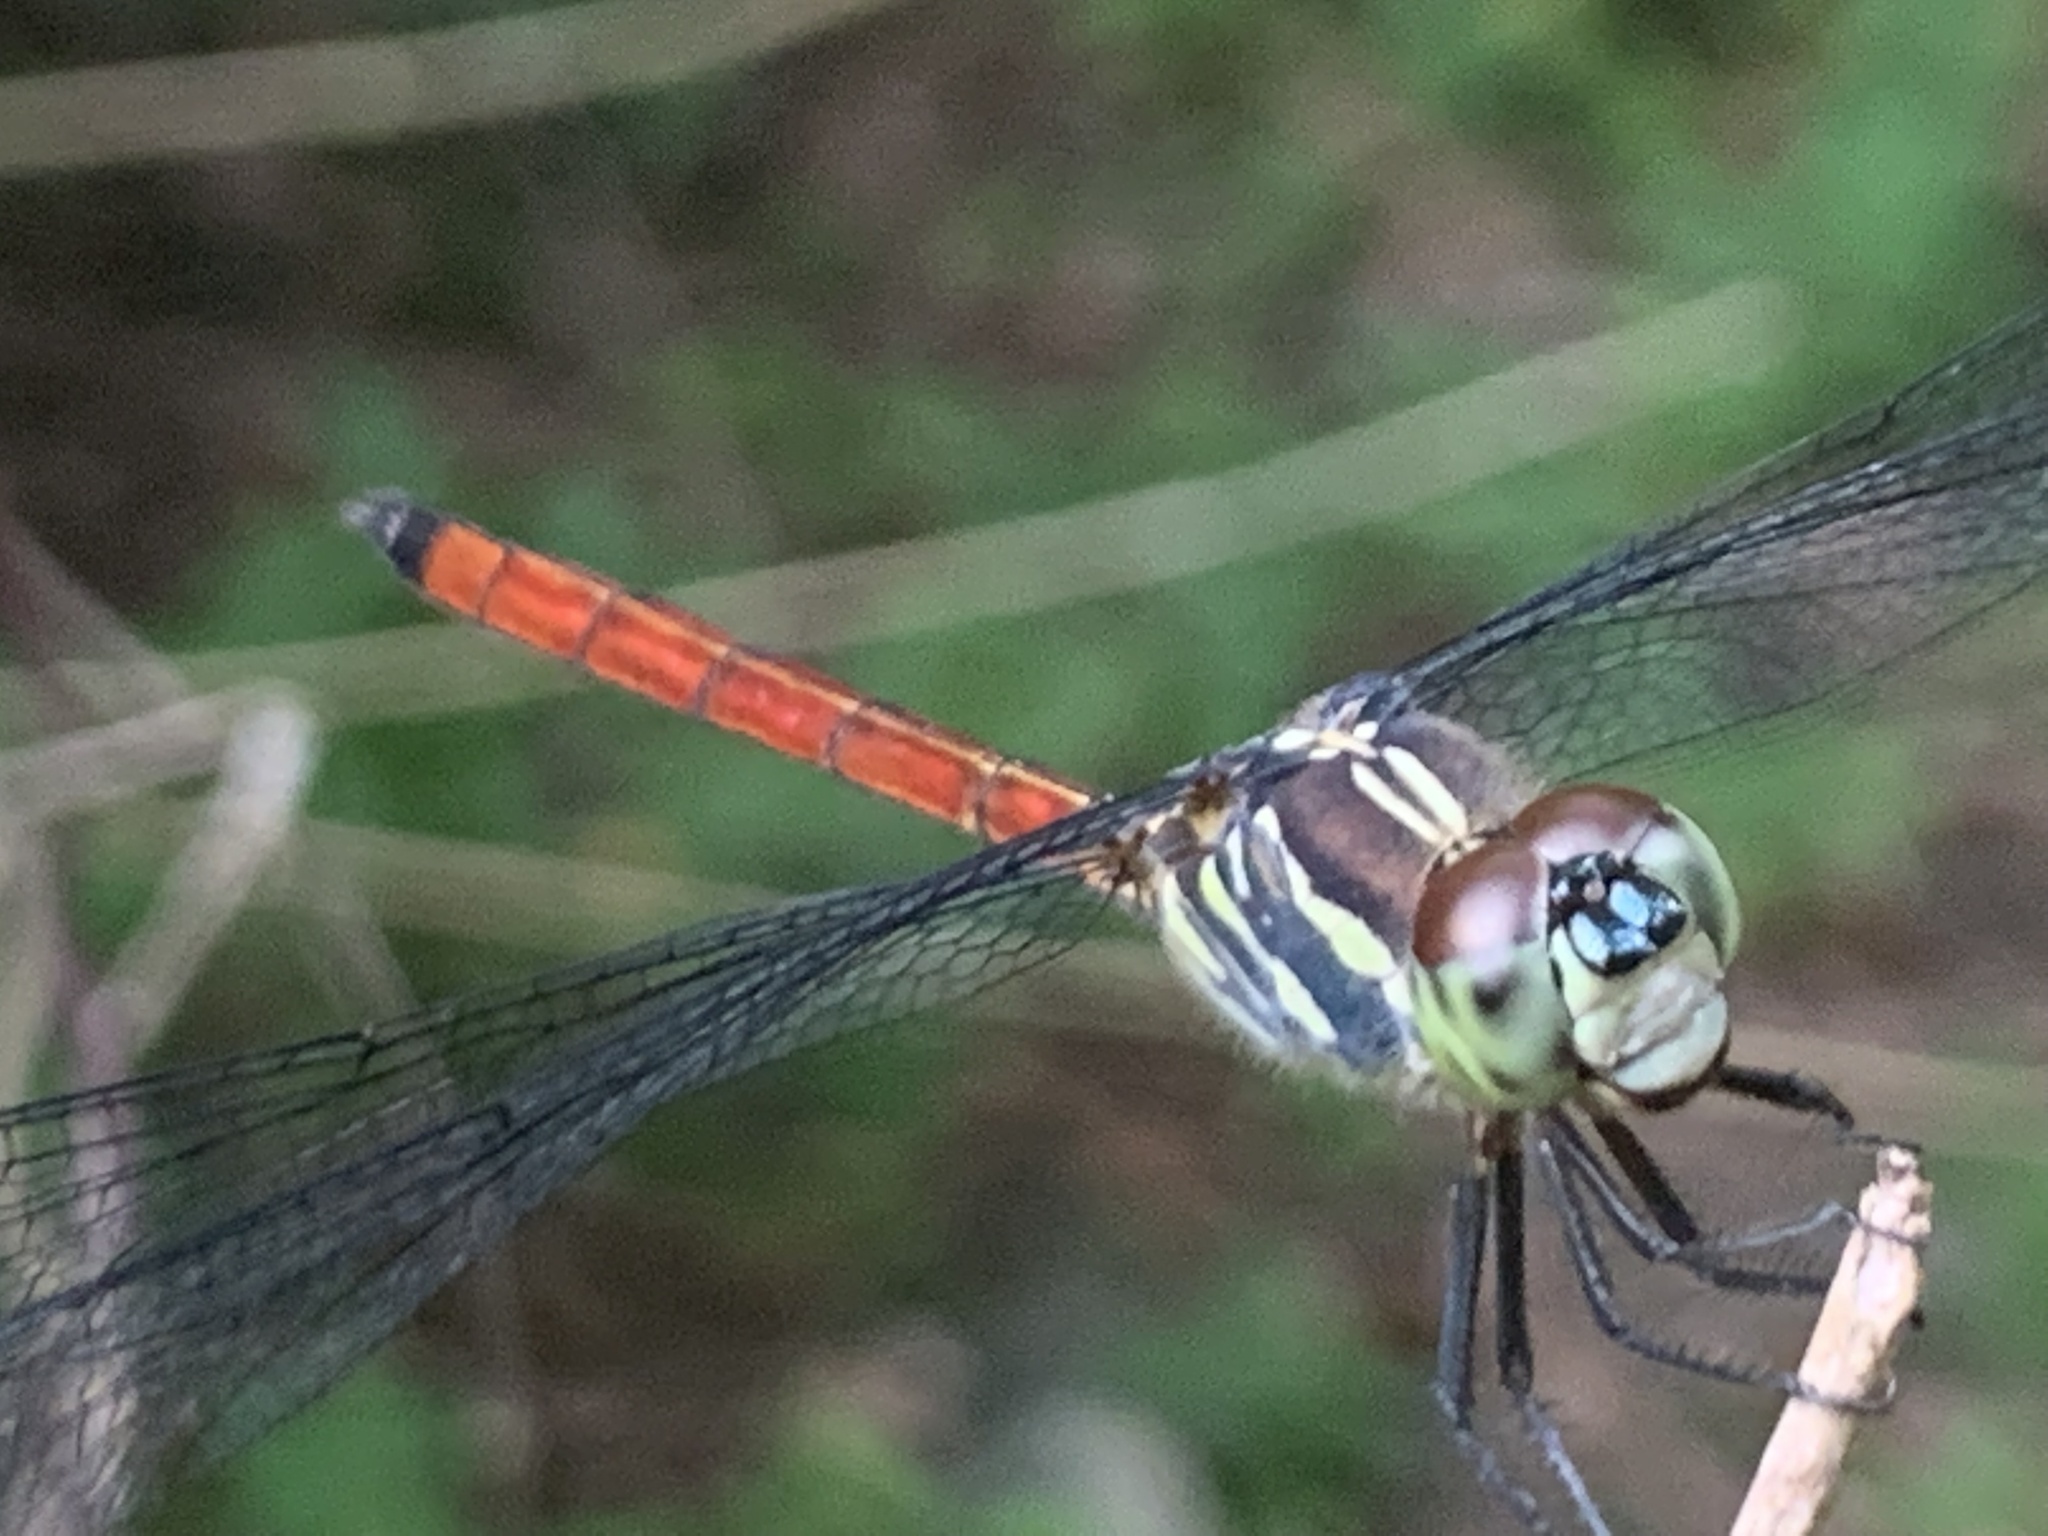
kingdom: Animalia
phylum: Arthropoda
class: Insecta
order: Odonata
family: Libellulidae
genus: Lathrecista
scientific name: Lathrecista asiatica
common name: Scarlet grenadier
